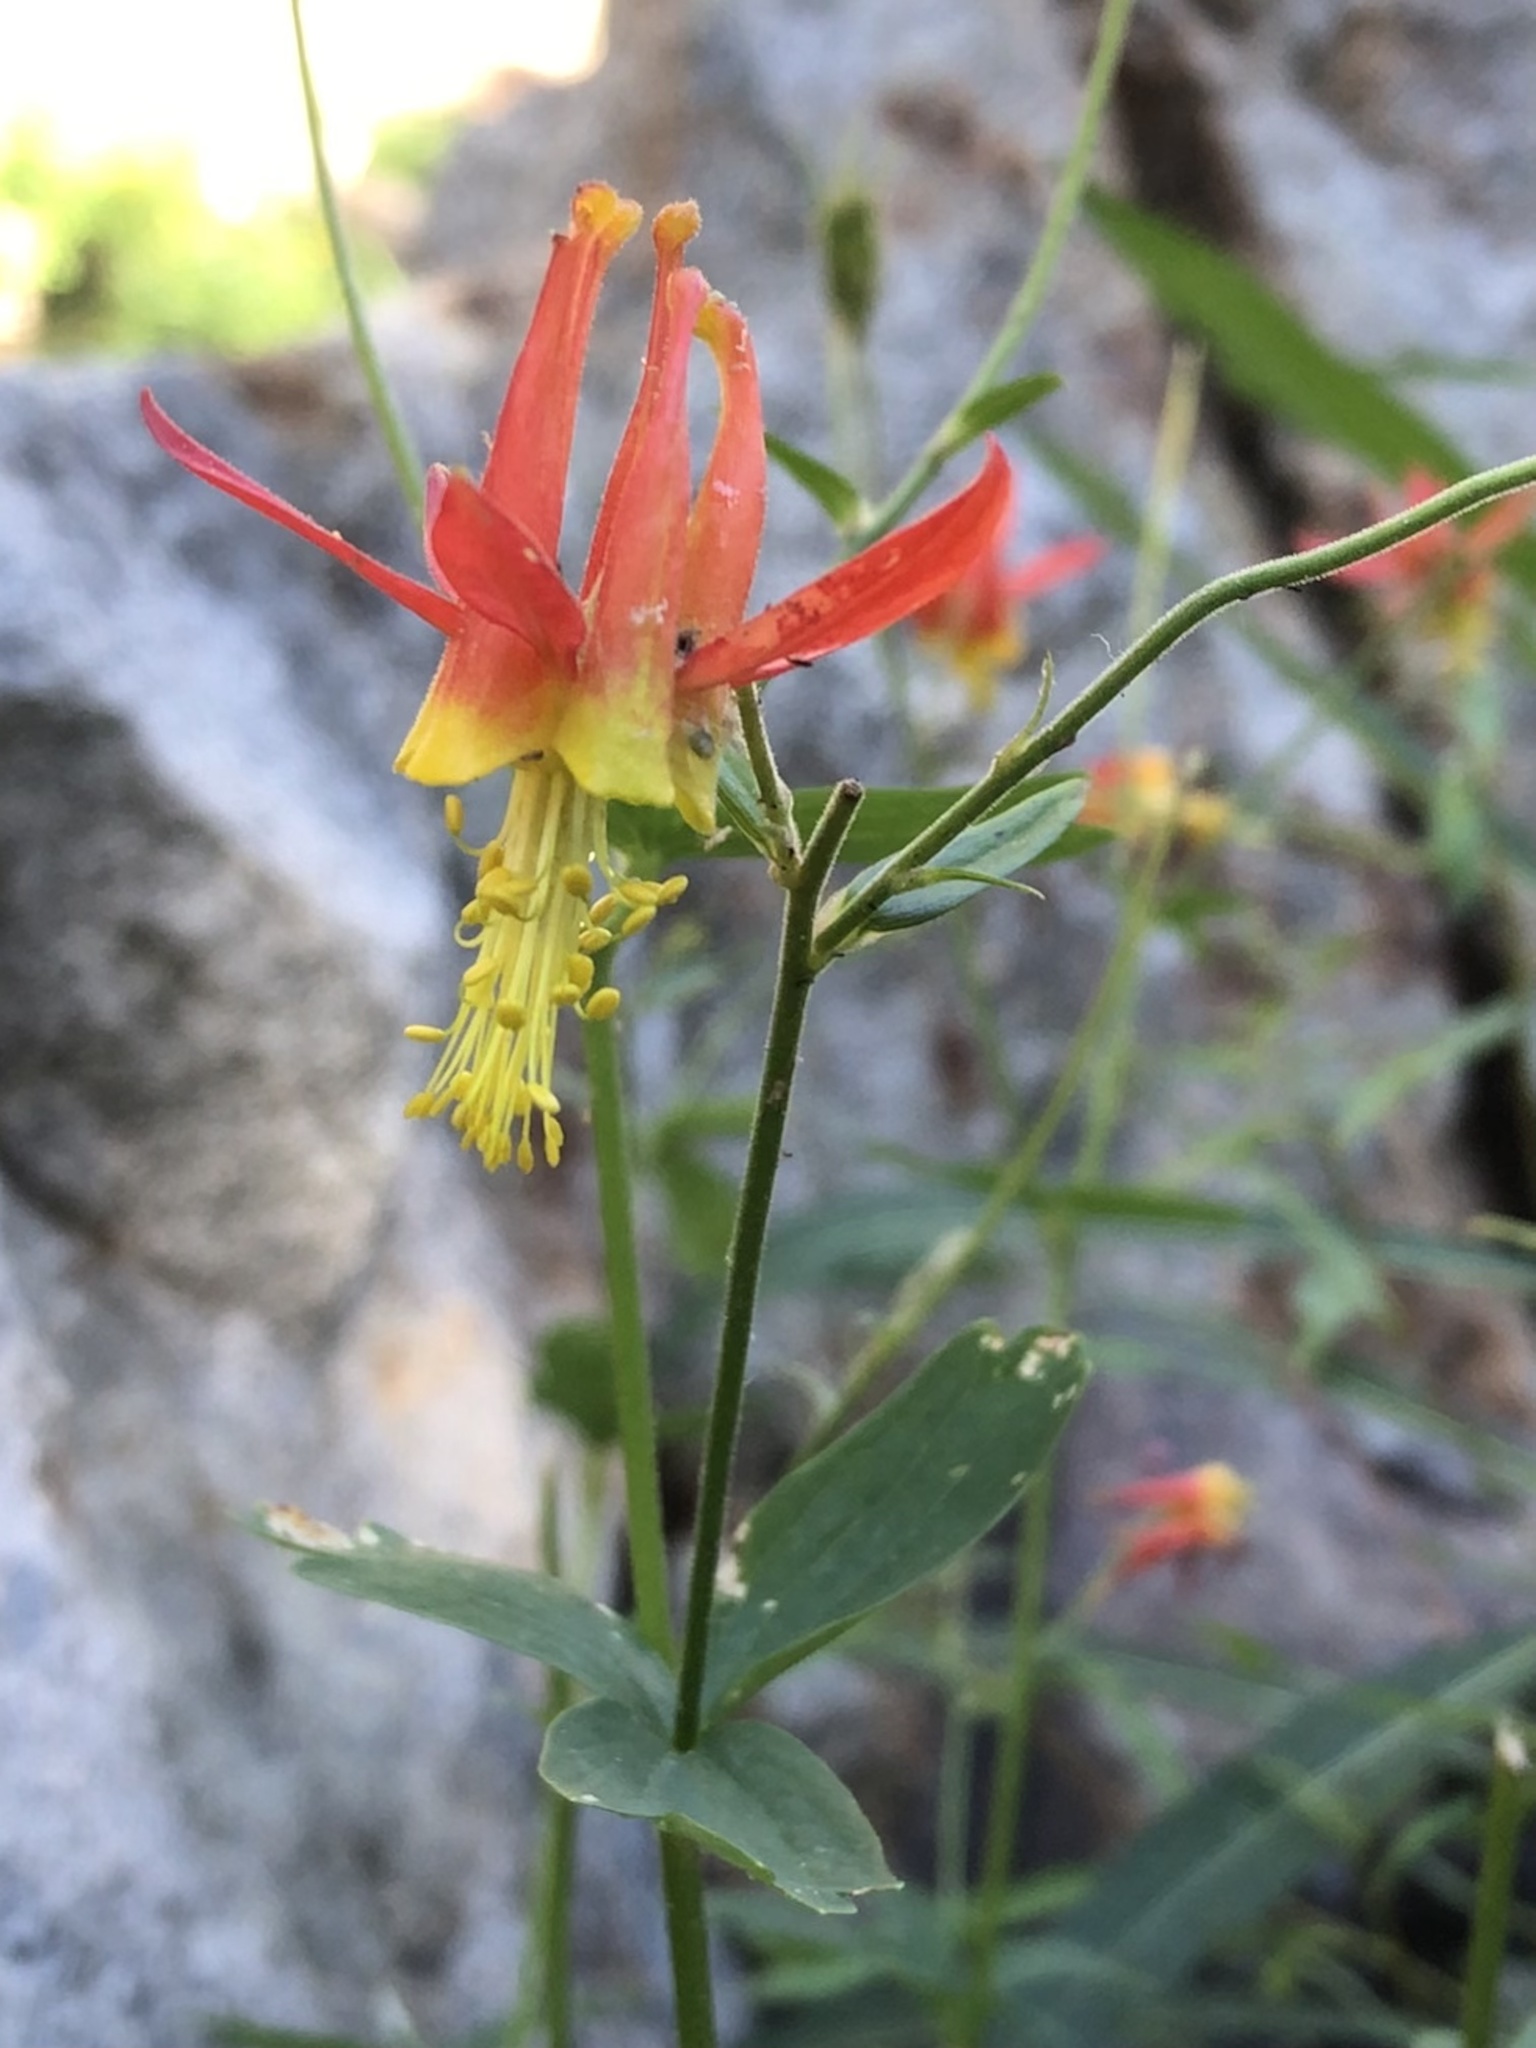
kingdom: Plantae
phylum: Tracheophyta
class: Magnoliopsida
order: Ranunculales
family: Ranunculaceae
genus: Aquilegia
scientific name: Aquilegia formosa
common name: Sitka columbine
